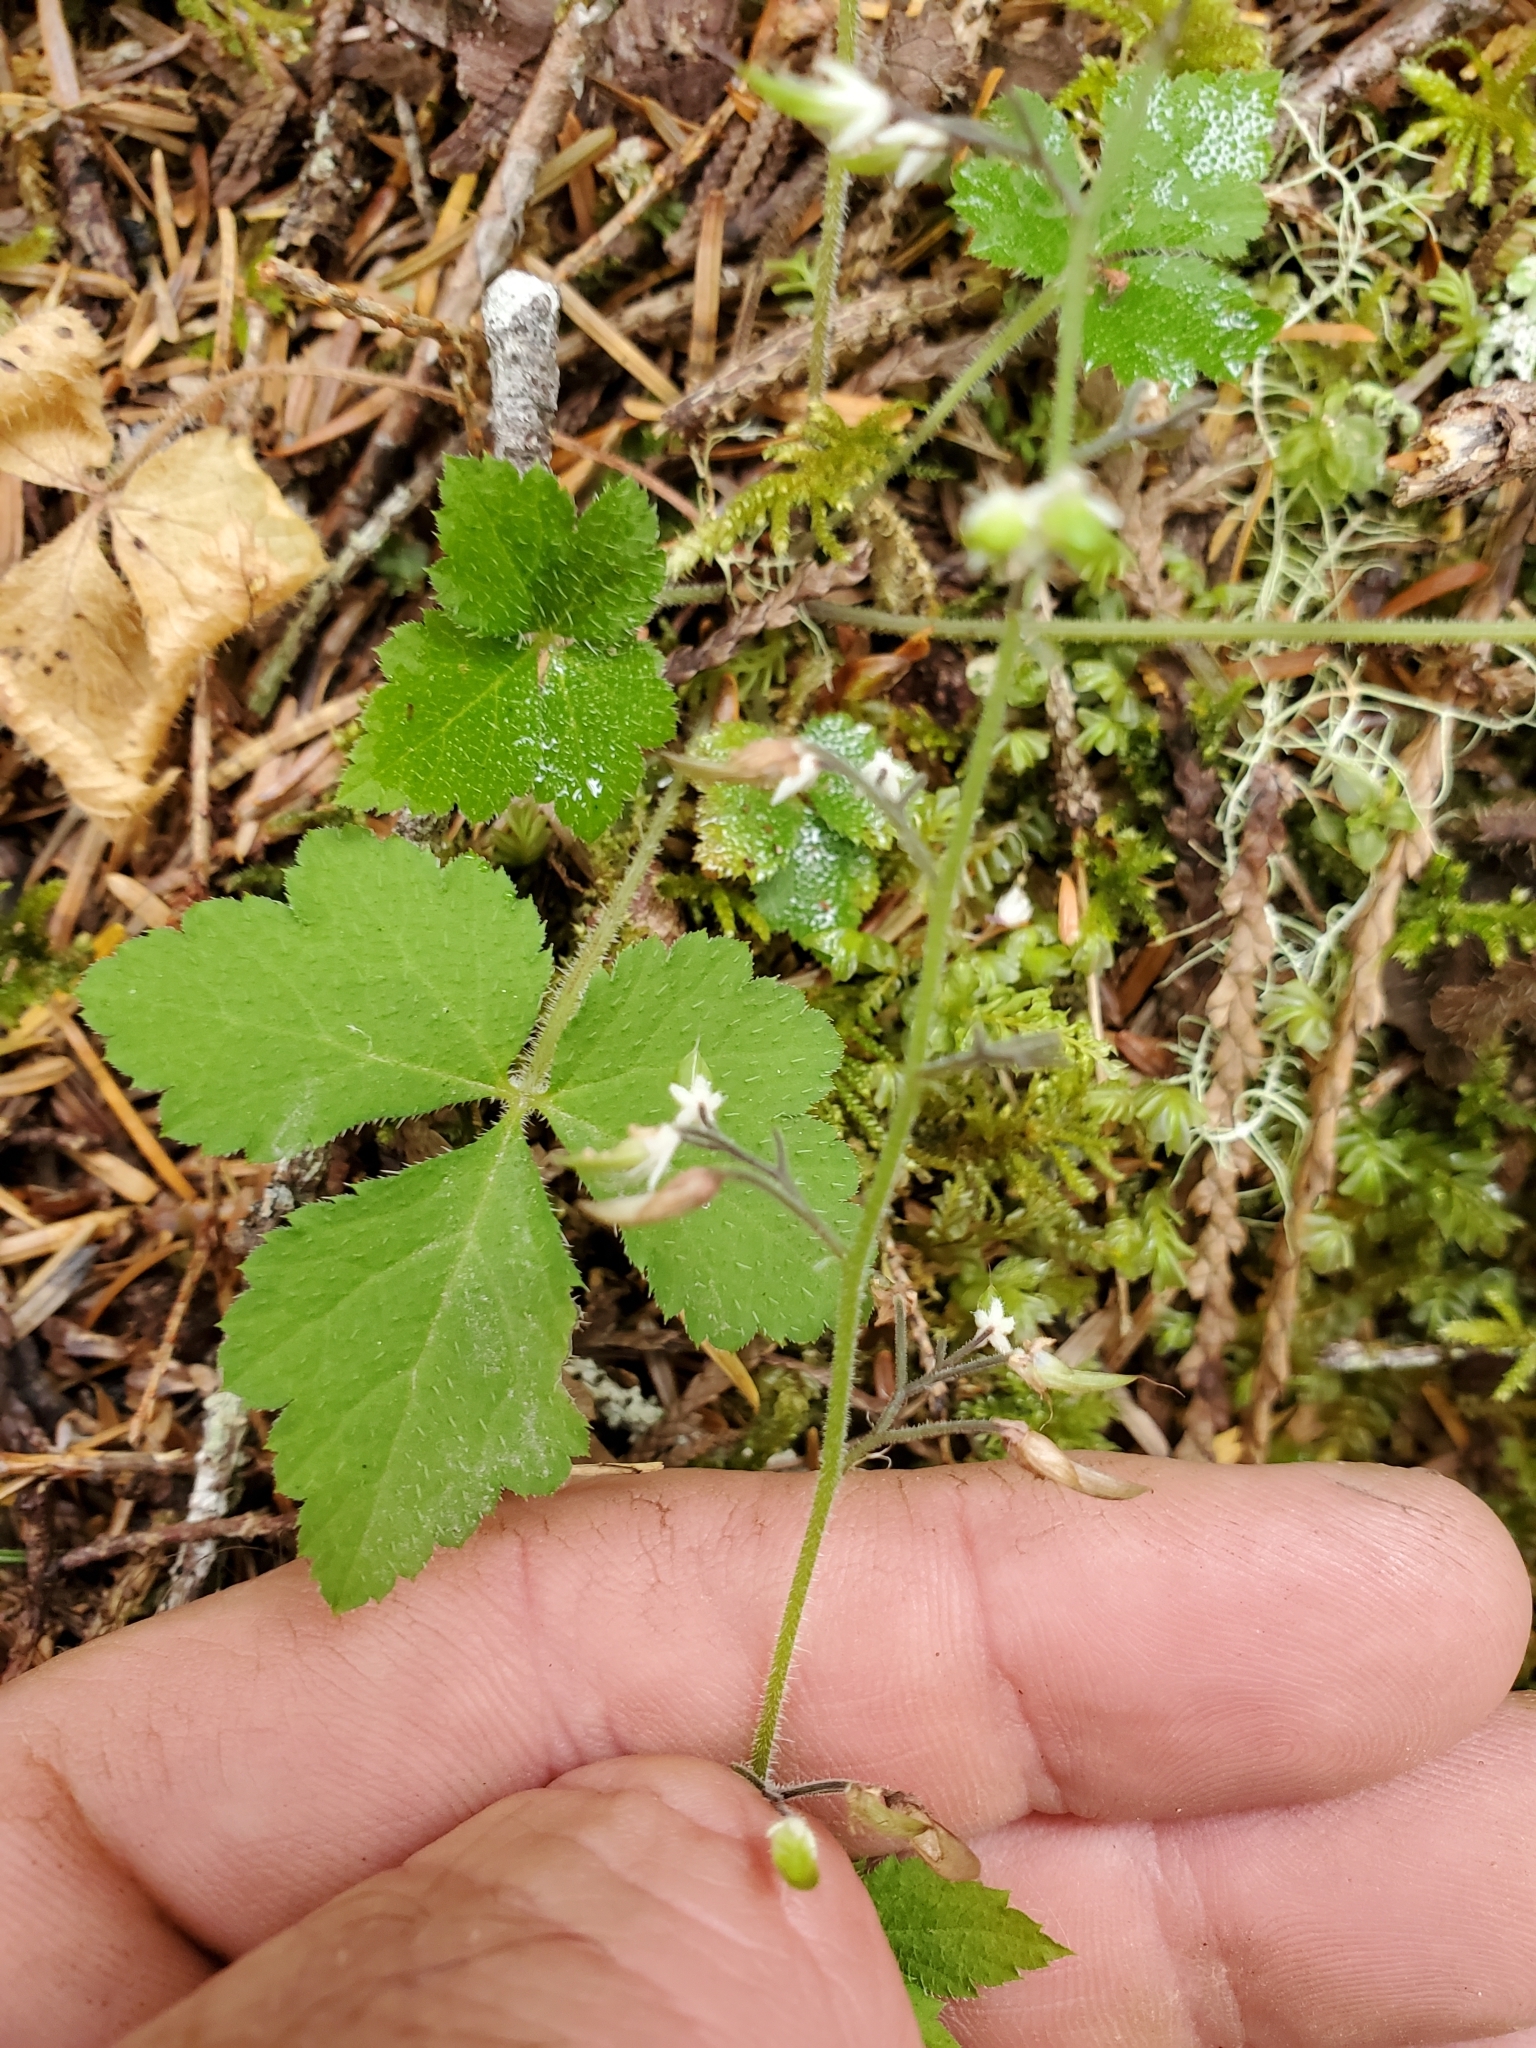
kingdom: Plantae
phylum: Tracheophyta
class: Magnoliopsida
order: Saxifragales
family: Saxifragaceae
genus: Tiarella
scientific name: Tiarella trifoliata
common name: Sugar-scoop
